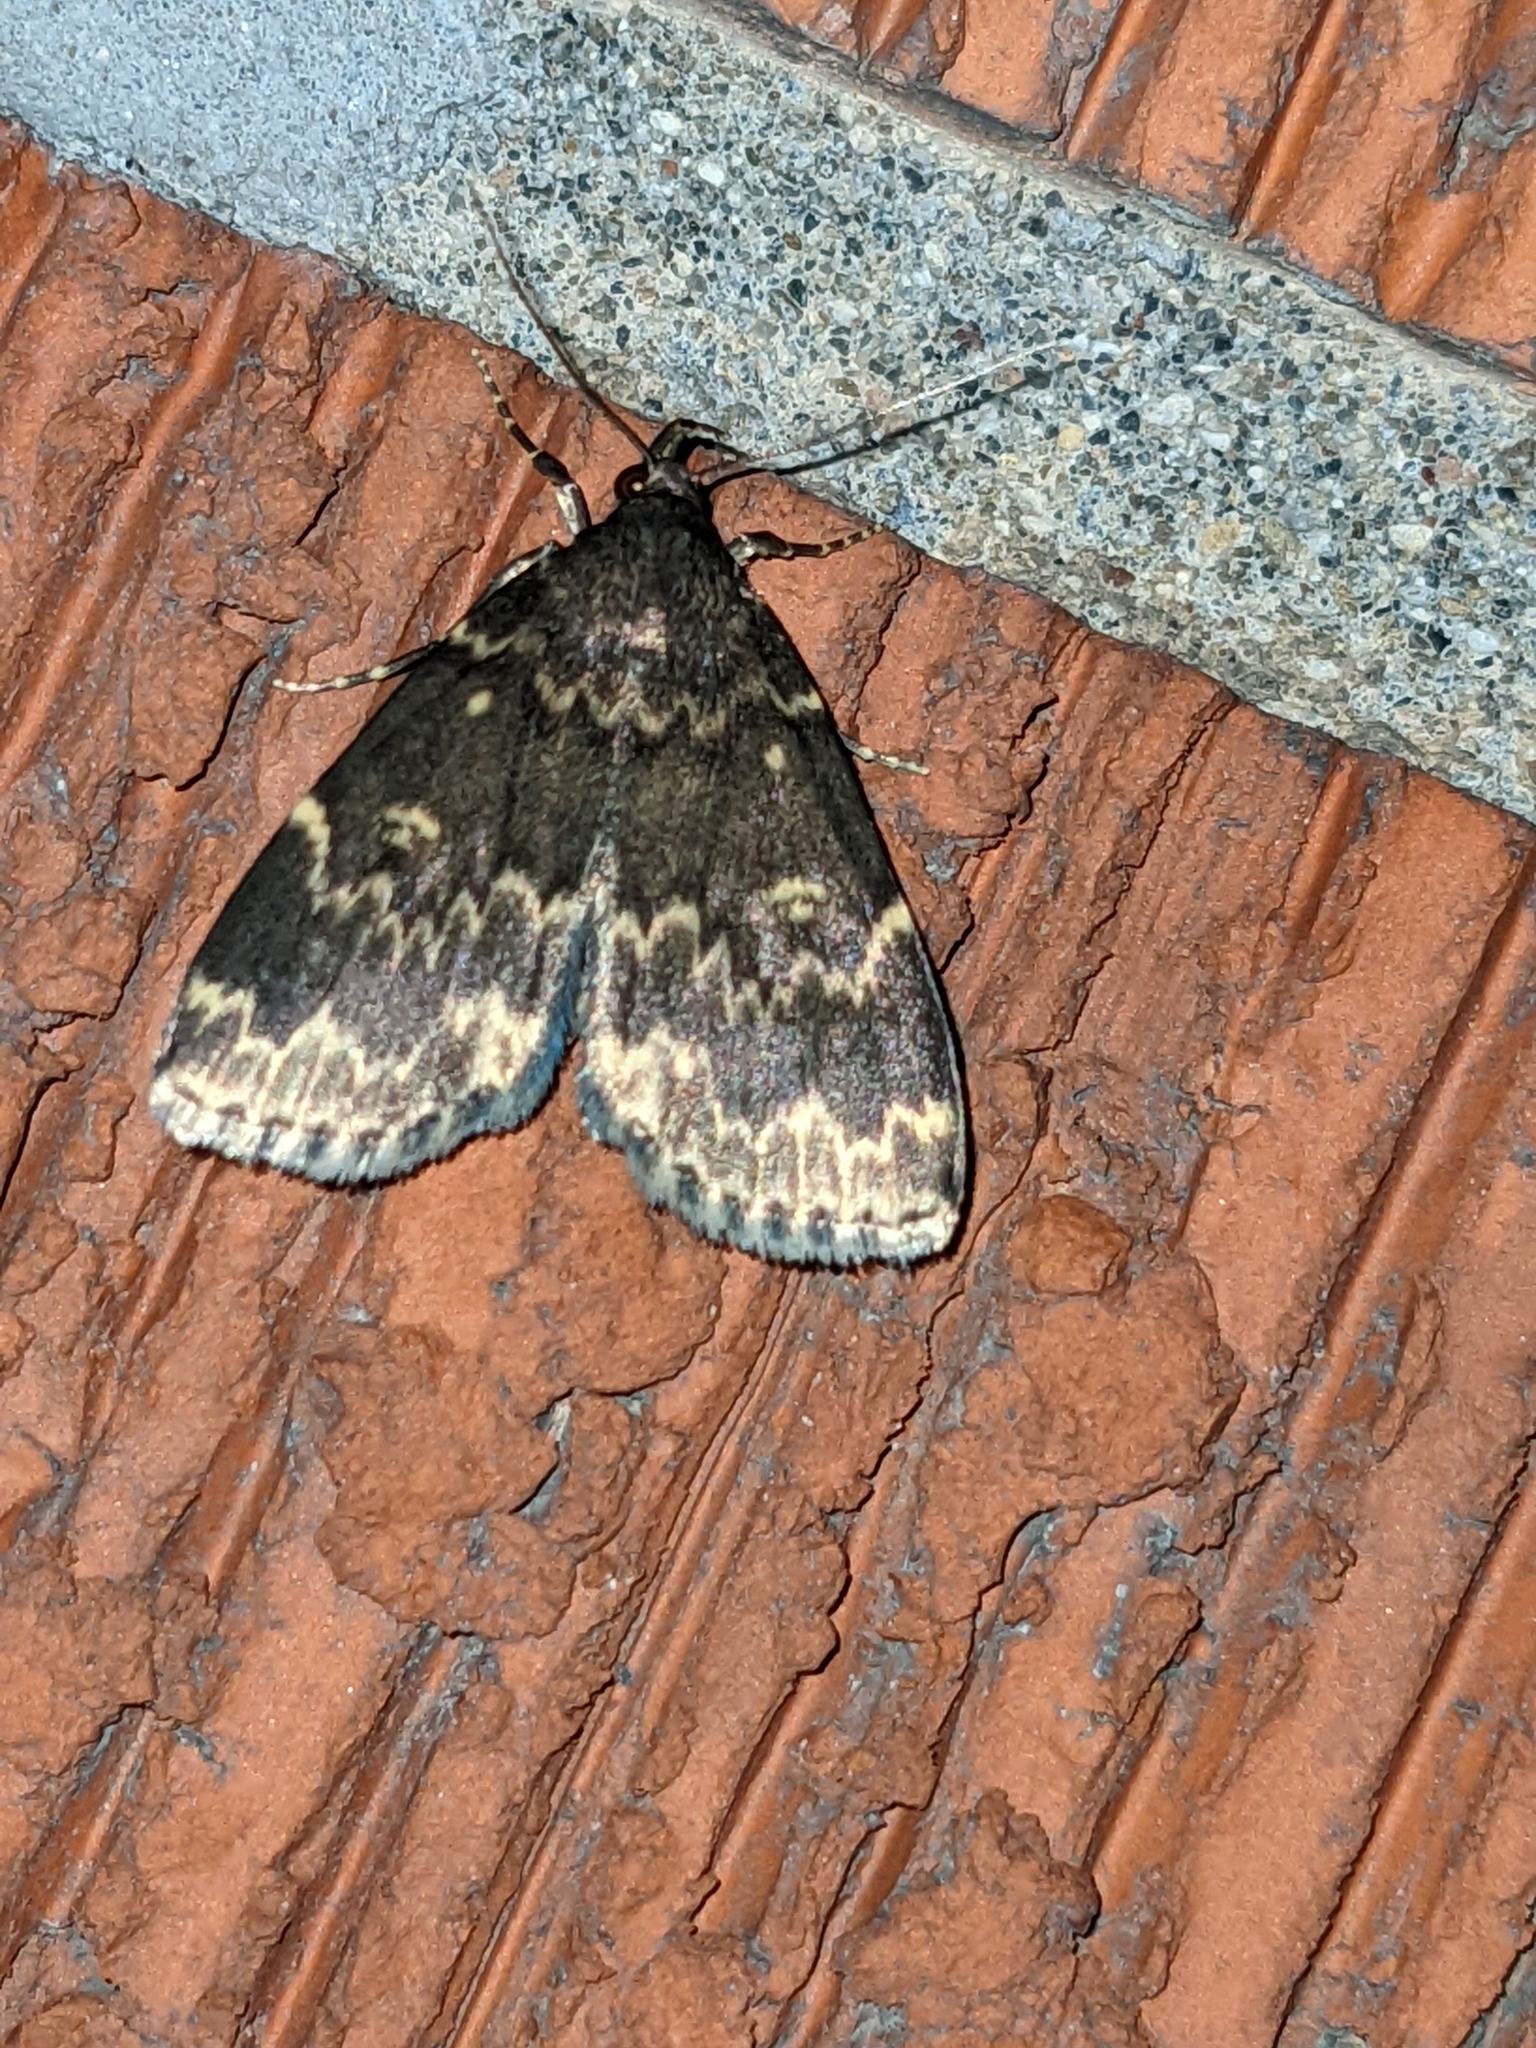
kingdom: Animalia
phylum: Arthropoda
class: Insecta
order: Lepidoptera
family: Erebidae
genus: Idia
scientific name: Idia lubricalis
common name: Twin-striped tabby
